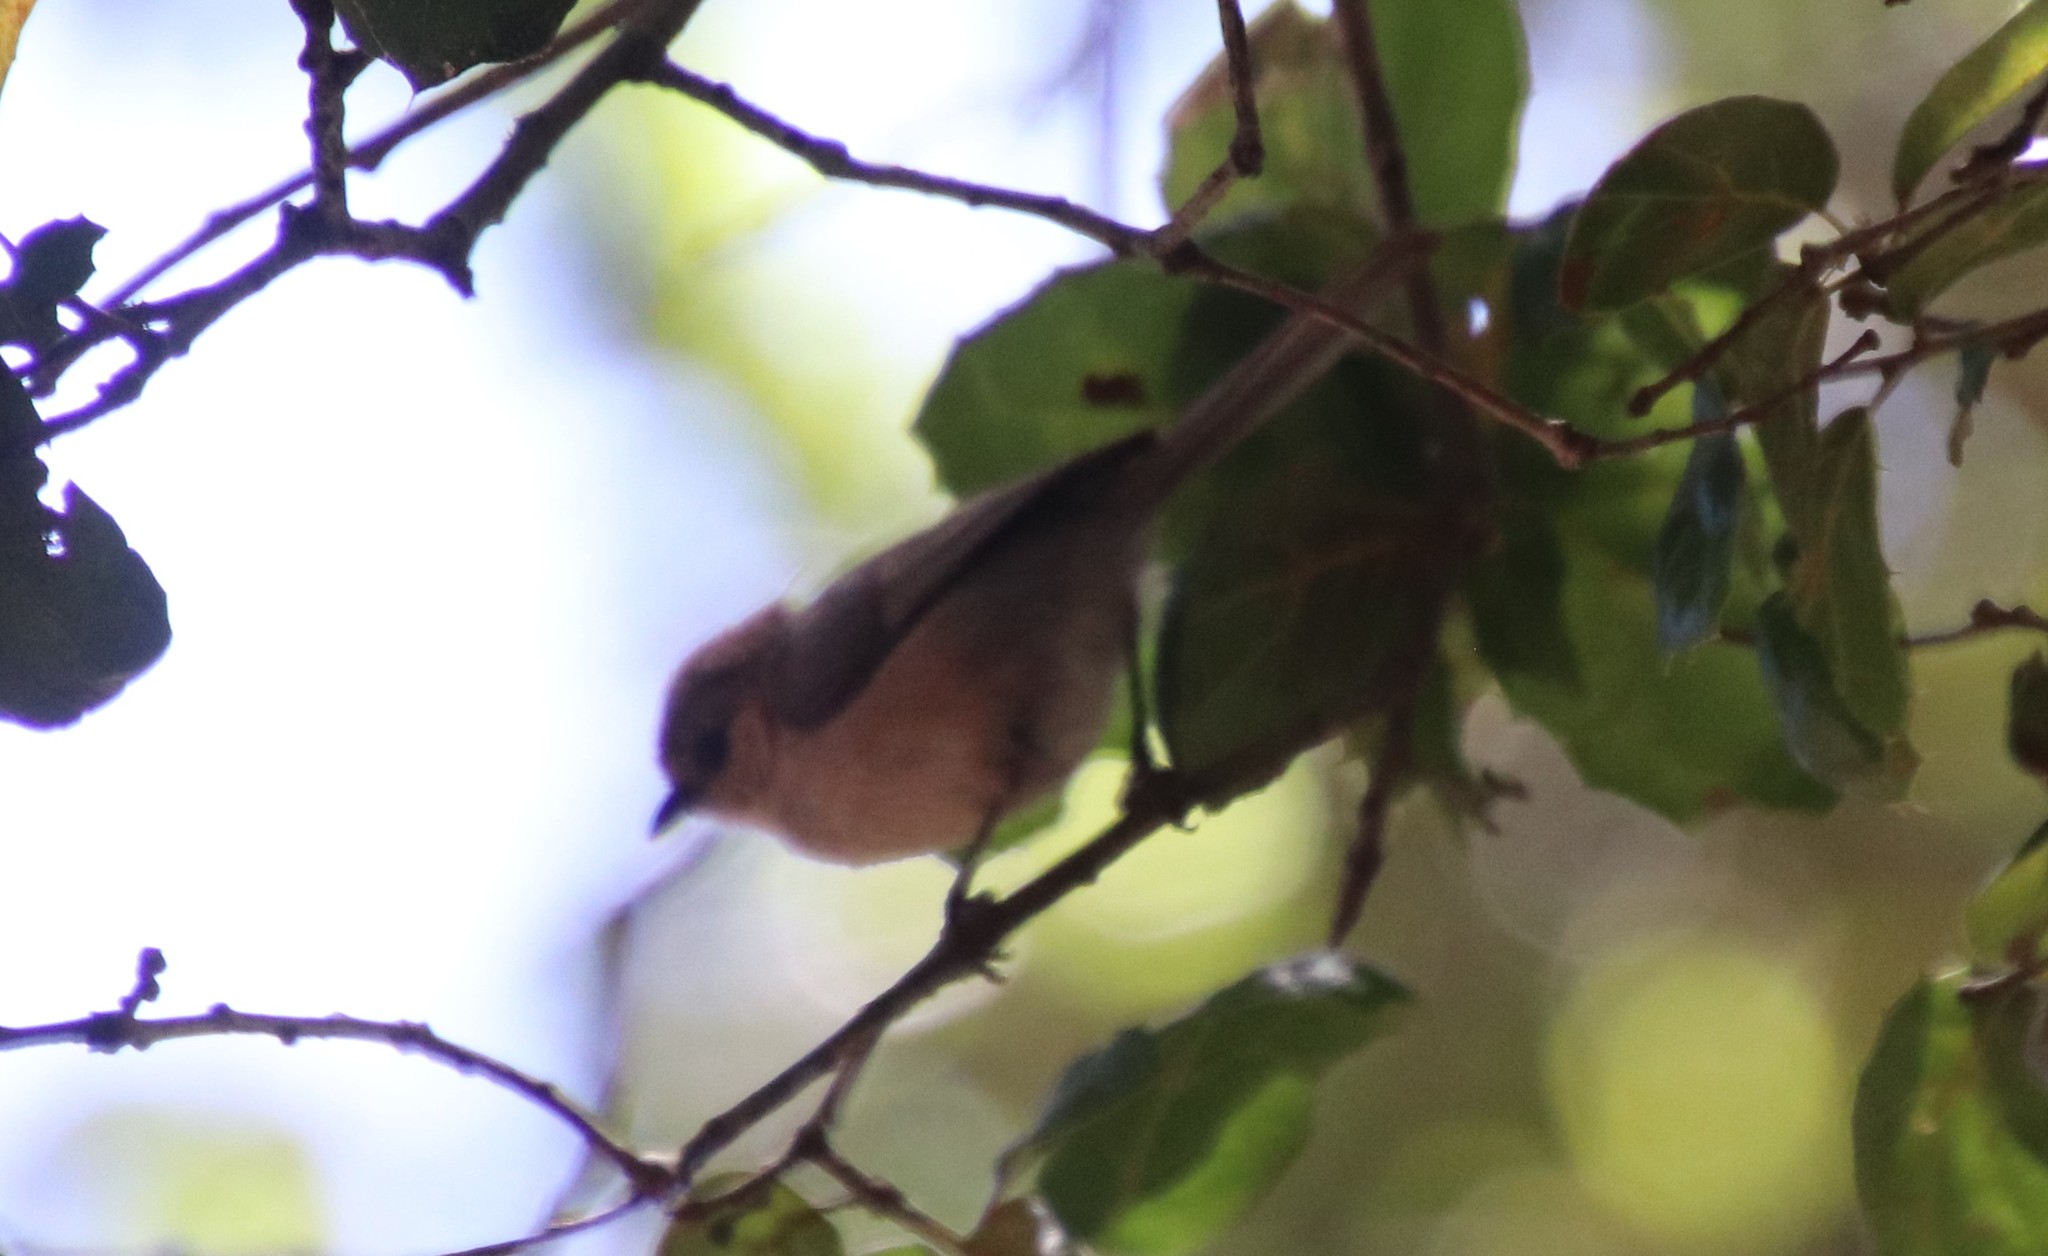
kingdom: Animalia
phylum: Chordata
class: Aves
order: Passeriformes
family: Aegithalidae
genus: Psaltriparus
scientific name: Psaltriparus minimus
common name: American bushtit
